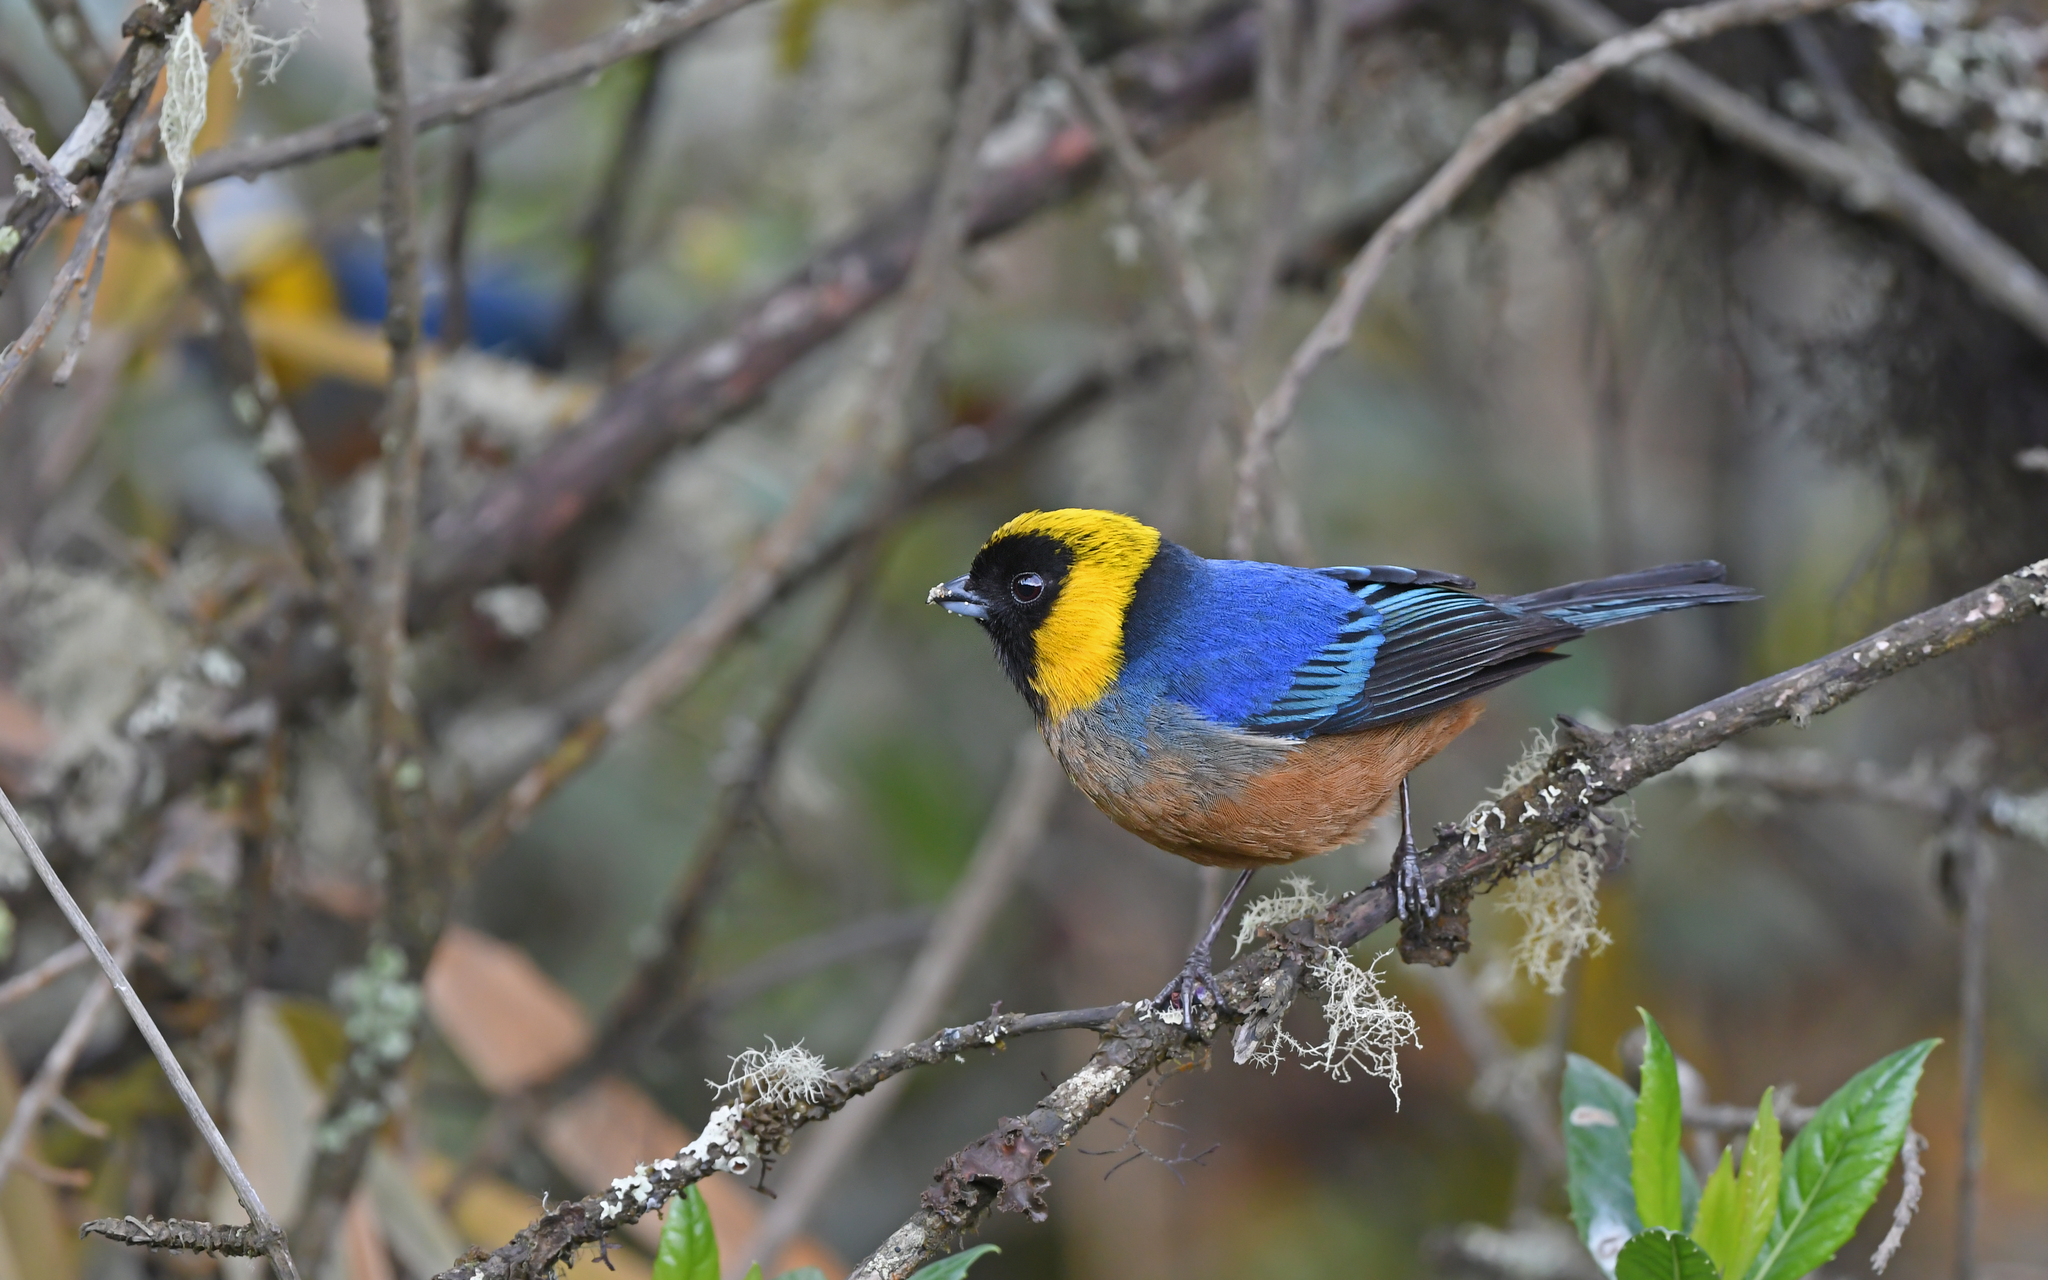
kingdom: Animalia
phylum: Chordata
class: Aves
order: Passeriformes
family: Thraupidae
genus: Iridosornis
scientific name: Iridosornis jelskii
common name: Golden-collared tanager
